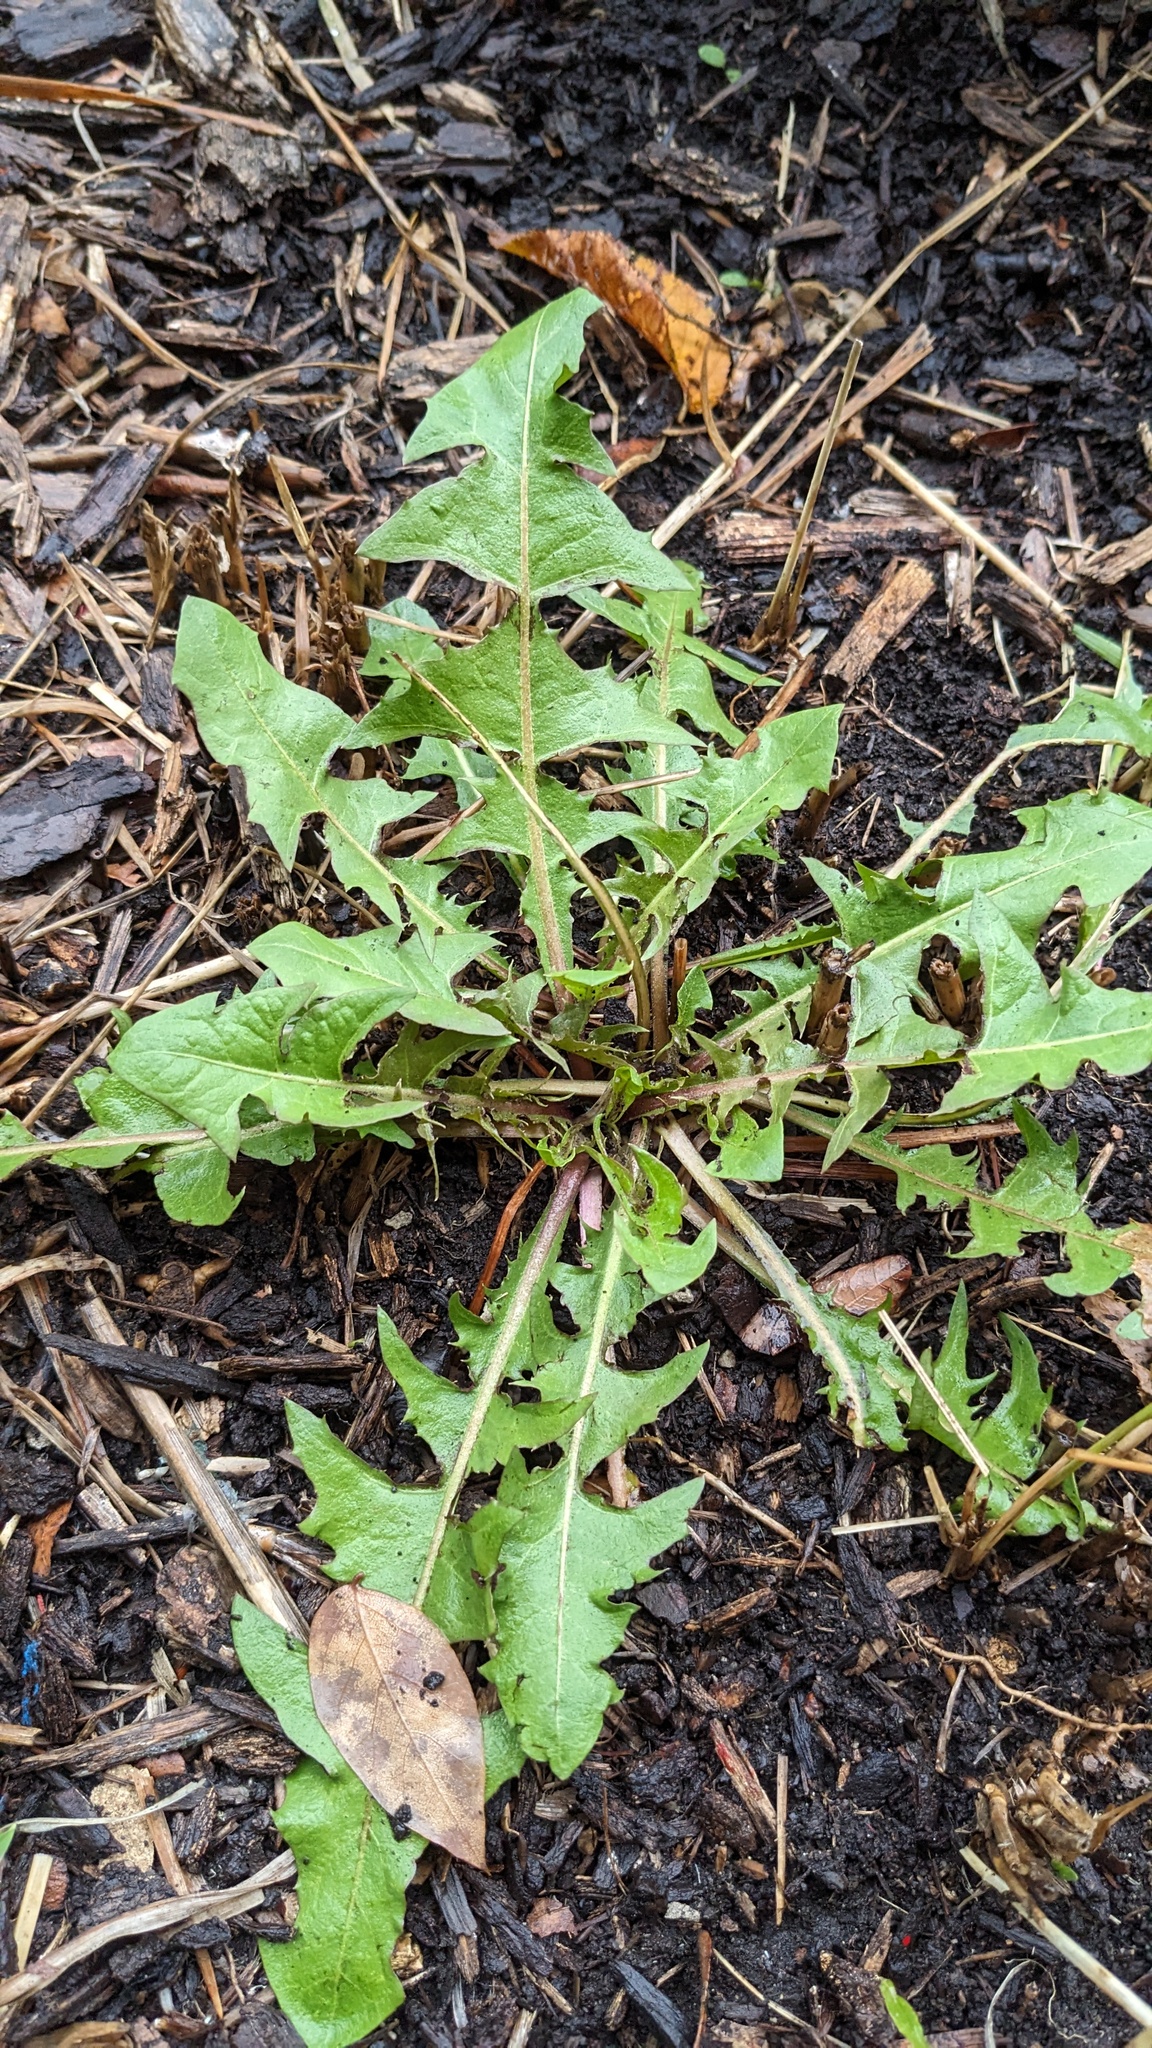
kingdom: Plantae
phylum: Tracheophyta
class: Magnoliopsida
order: Asterales
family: Asteraceae
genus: Taraxacum
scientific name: Taraxacum
